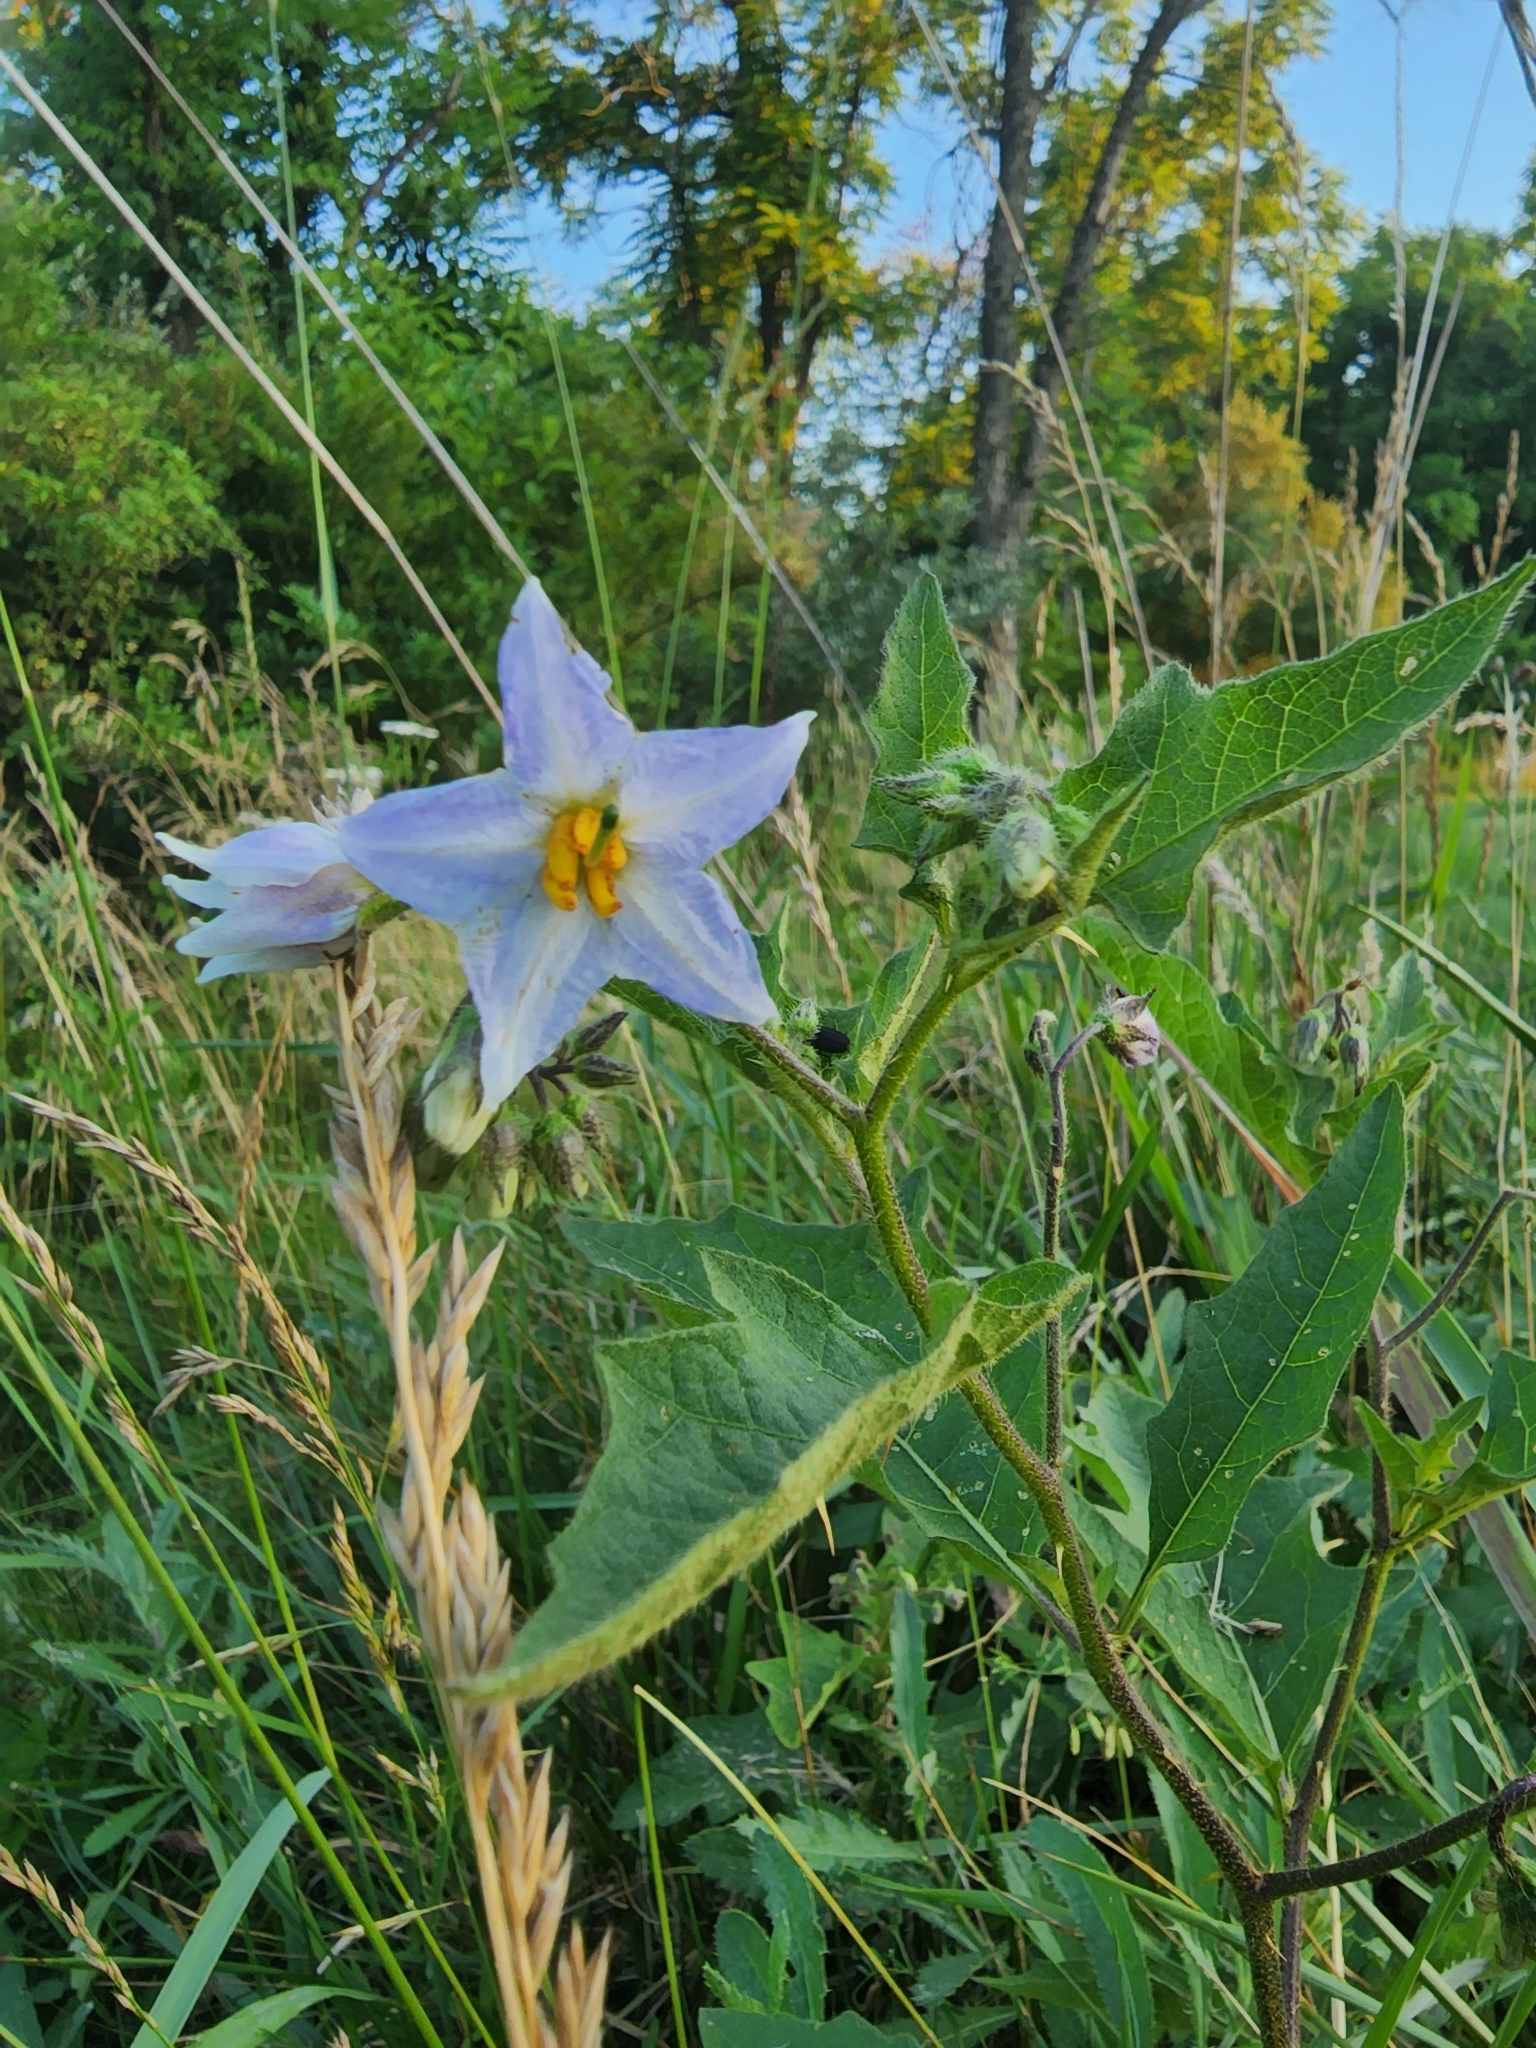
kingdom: Plantae
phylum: Tracheophyta
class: Magnoliopsida
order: Solanales
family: Solanaceae
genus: Solanum
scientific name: Solanum carolinense
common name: Horse-nettle
